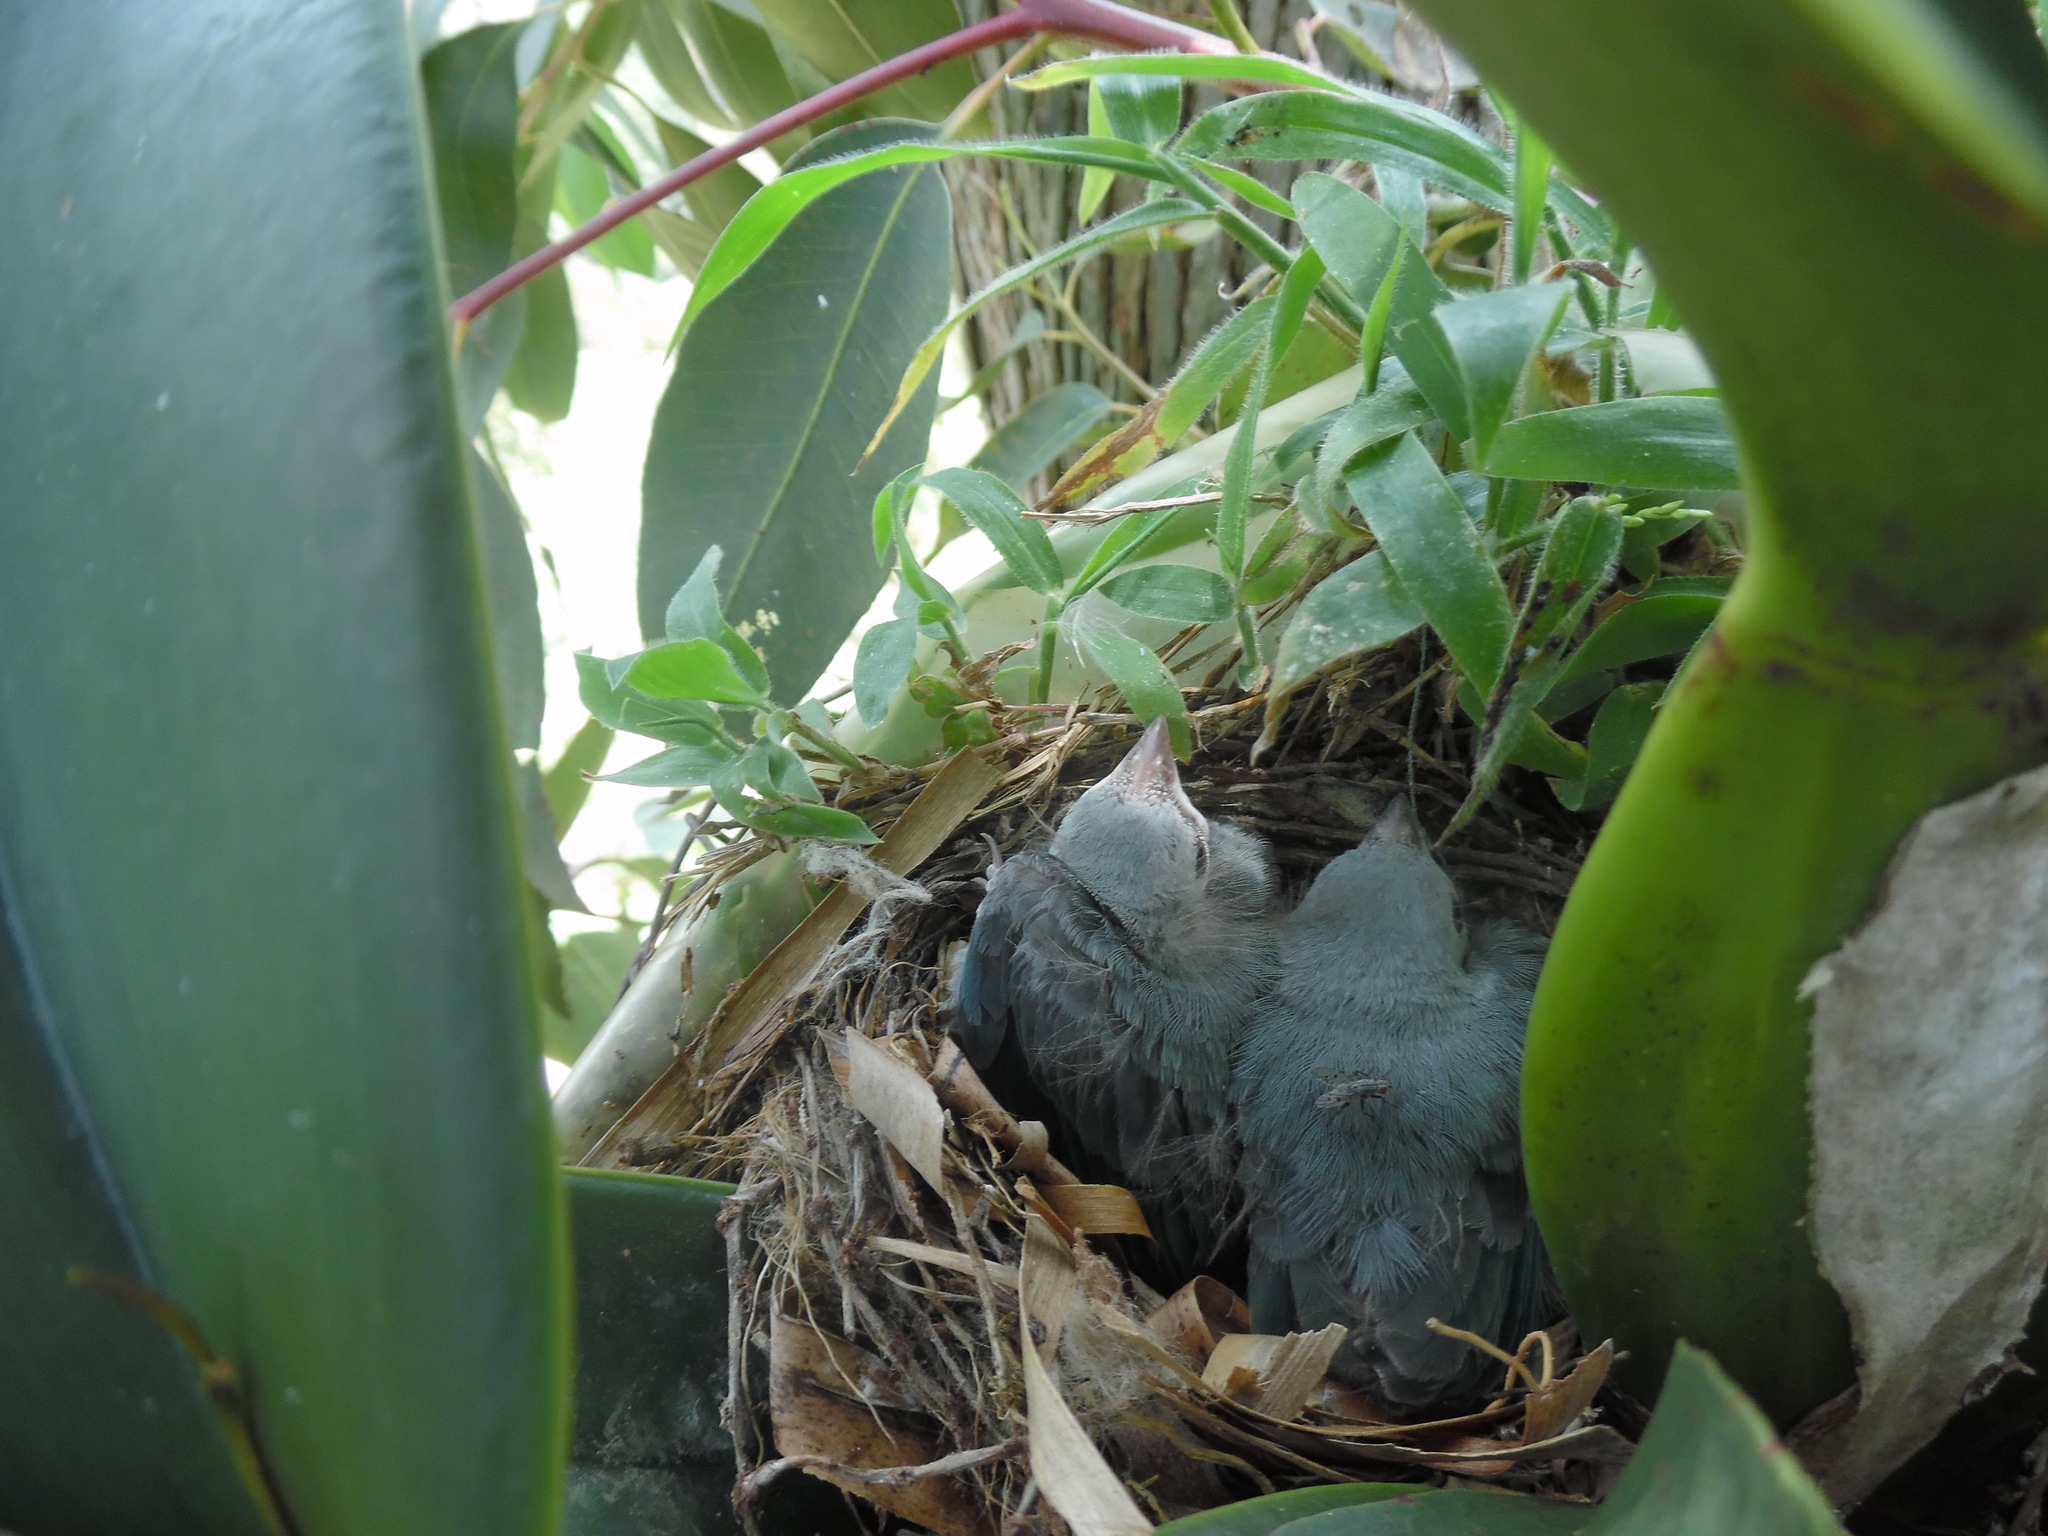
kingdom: Animalia
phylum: Chordata
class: Aves
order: Passeriformes
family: Thraupidae
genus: Thraupis
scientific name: Thraupis episcopus
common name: Blue-grey tanager
